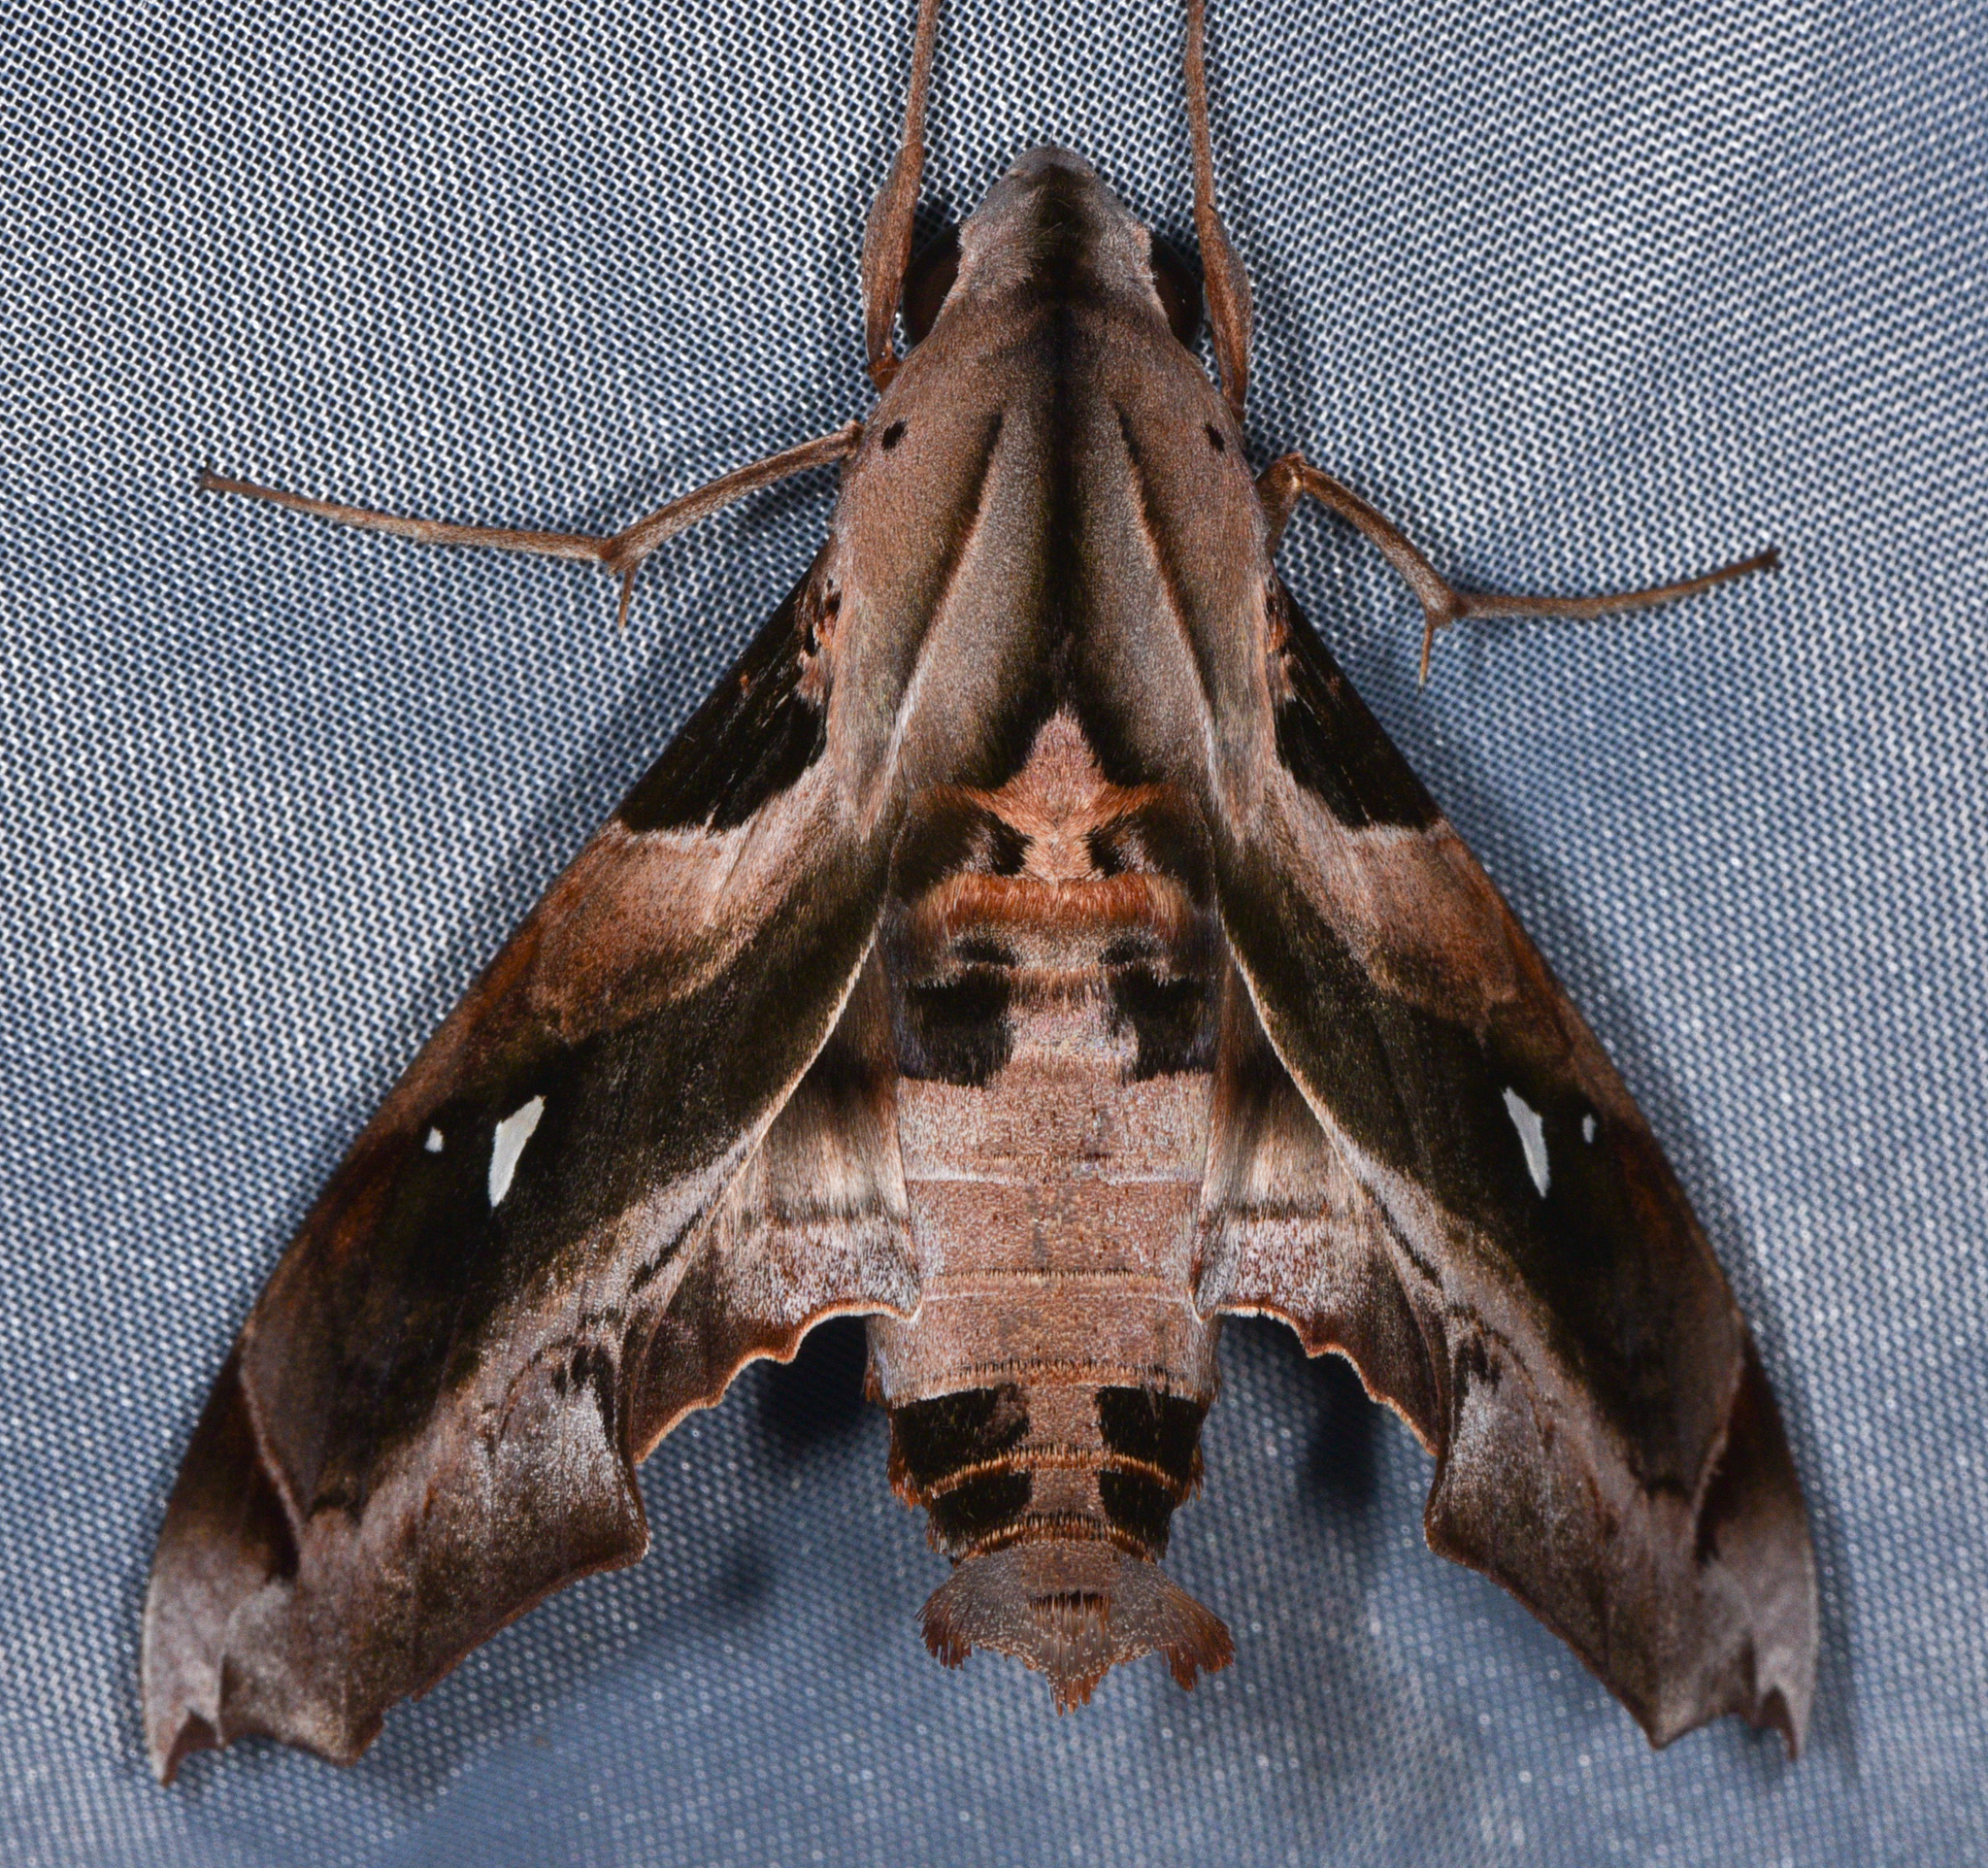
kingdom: Animalia
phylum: Arthropoda
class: Insecta
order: Lepidoptera
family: Sphingidae
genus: Madoryx
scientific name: Madoryx plutonius
